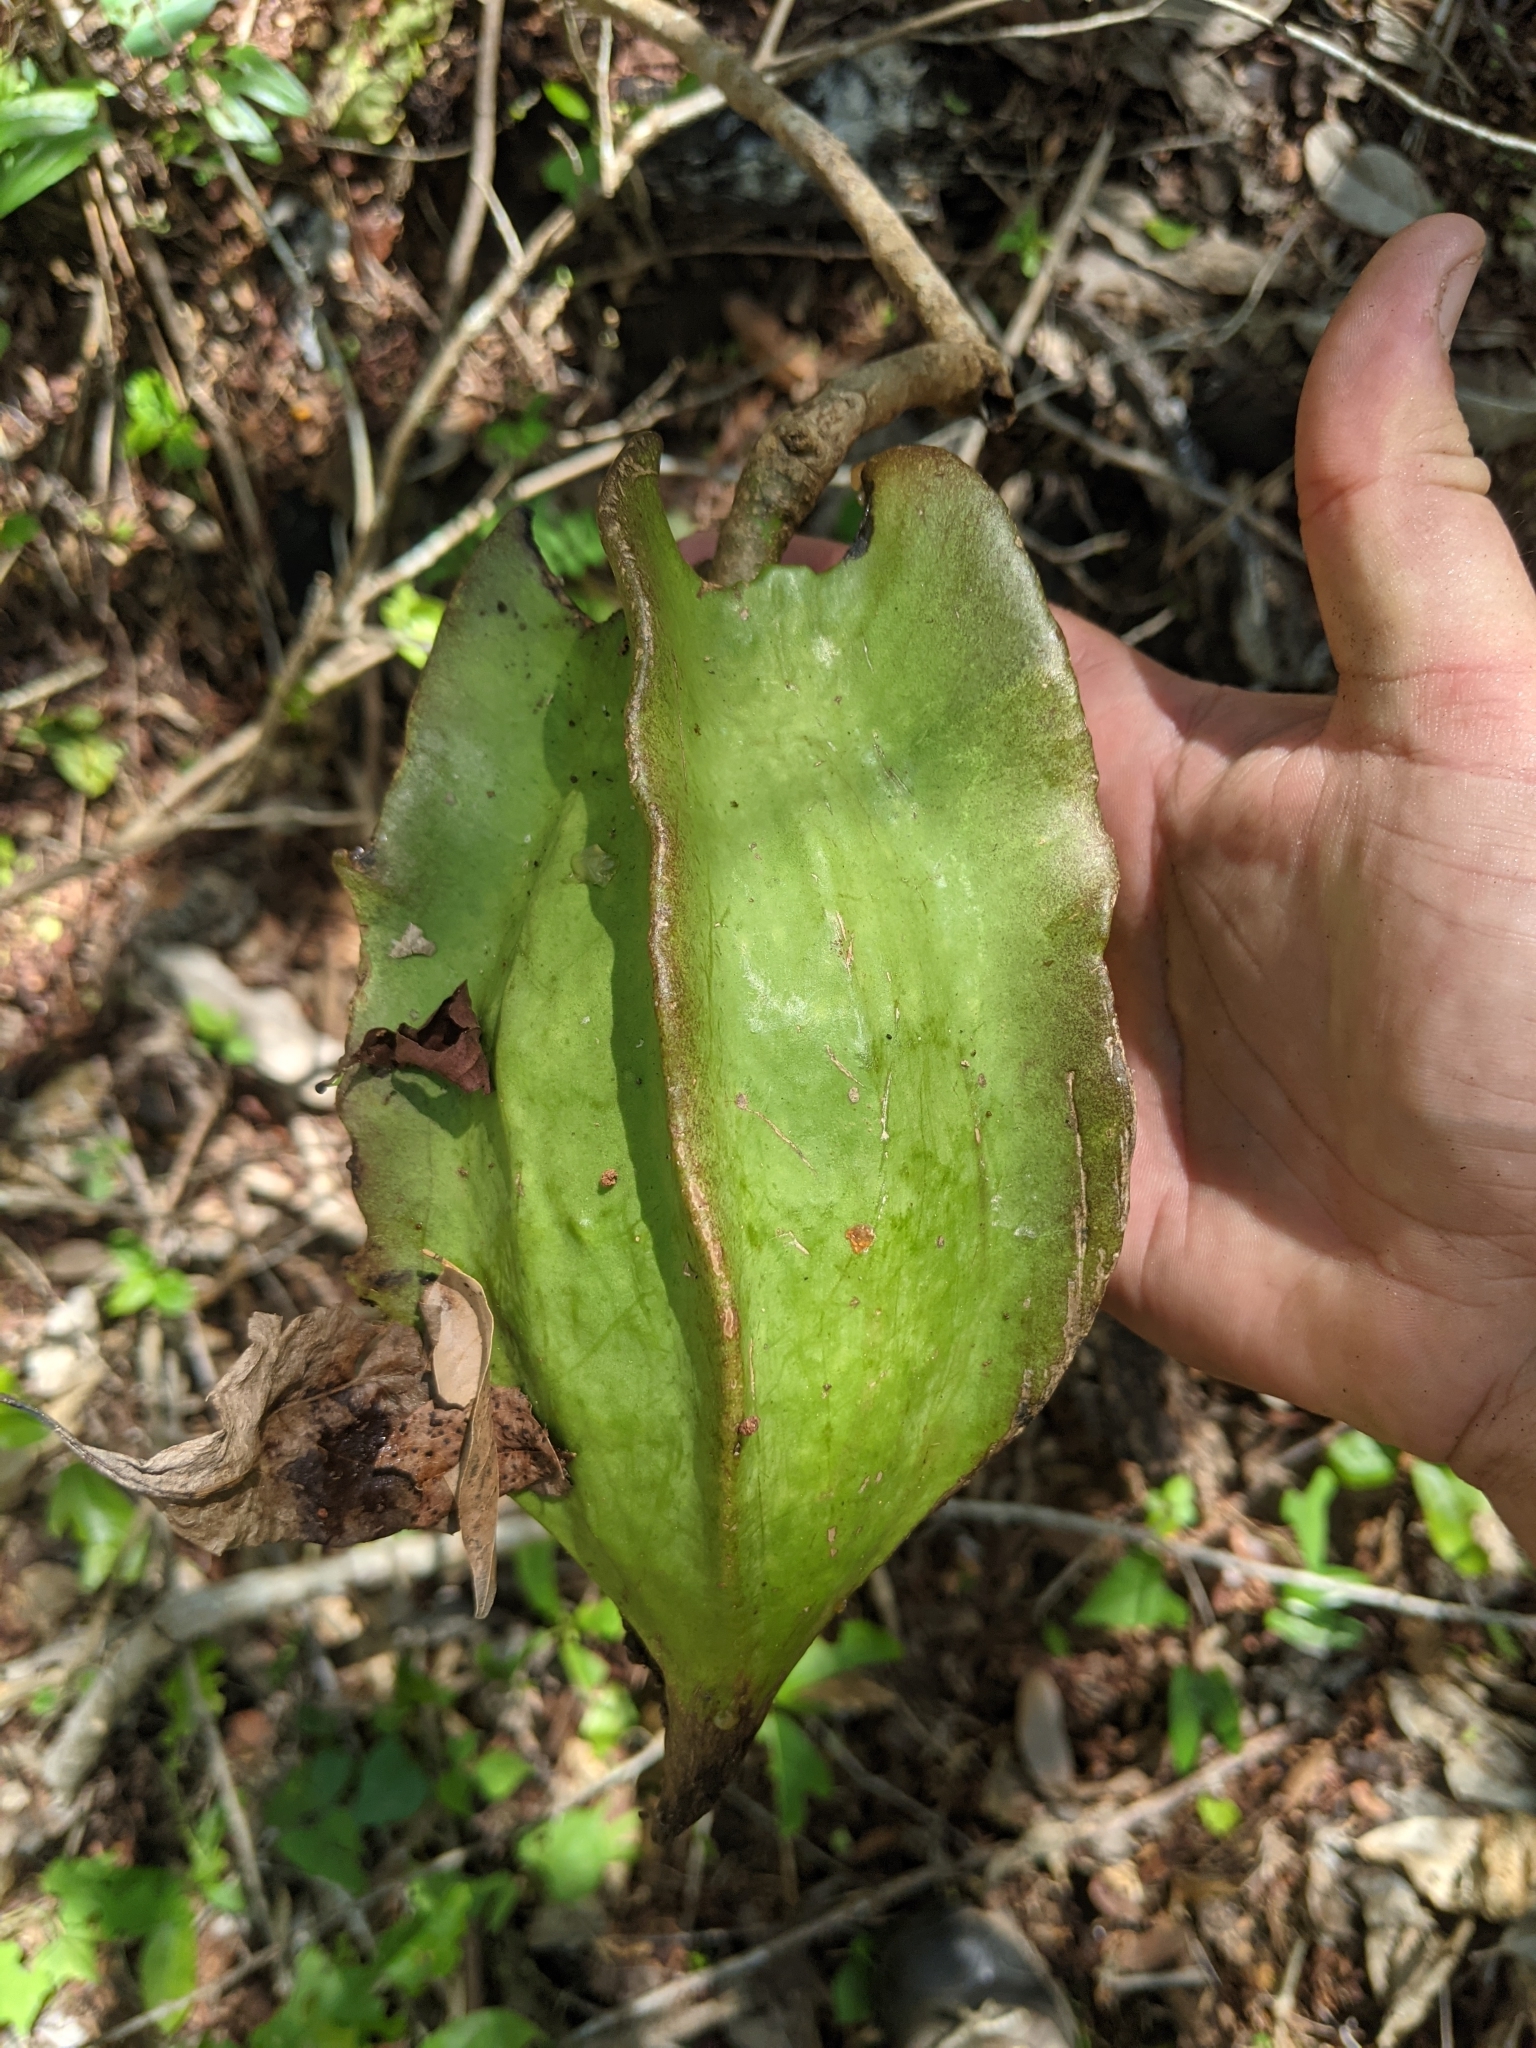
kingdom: Plantae
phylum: Tracheophyta
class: Magnoliopsida
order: Brassicales
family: Caricaceae
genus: Jacaratia
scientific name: Jacaratia mexicana
